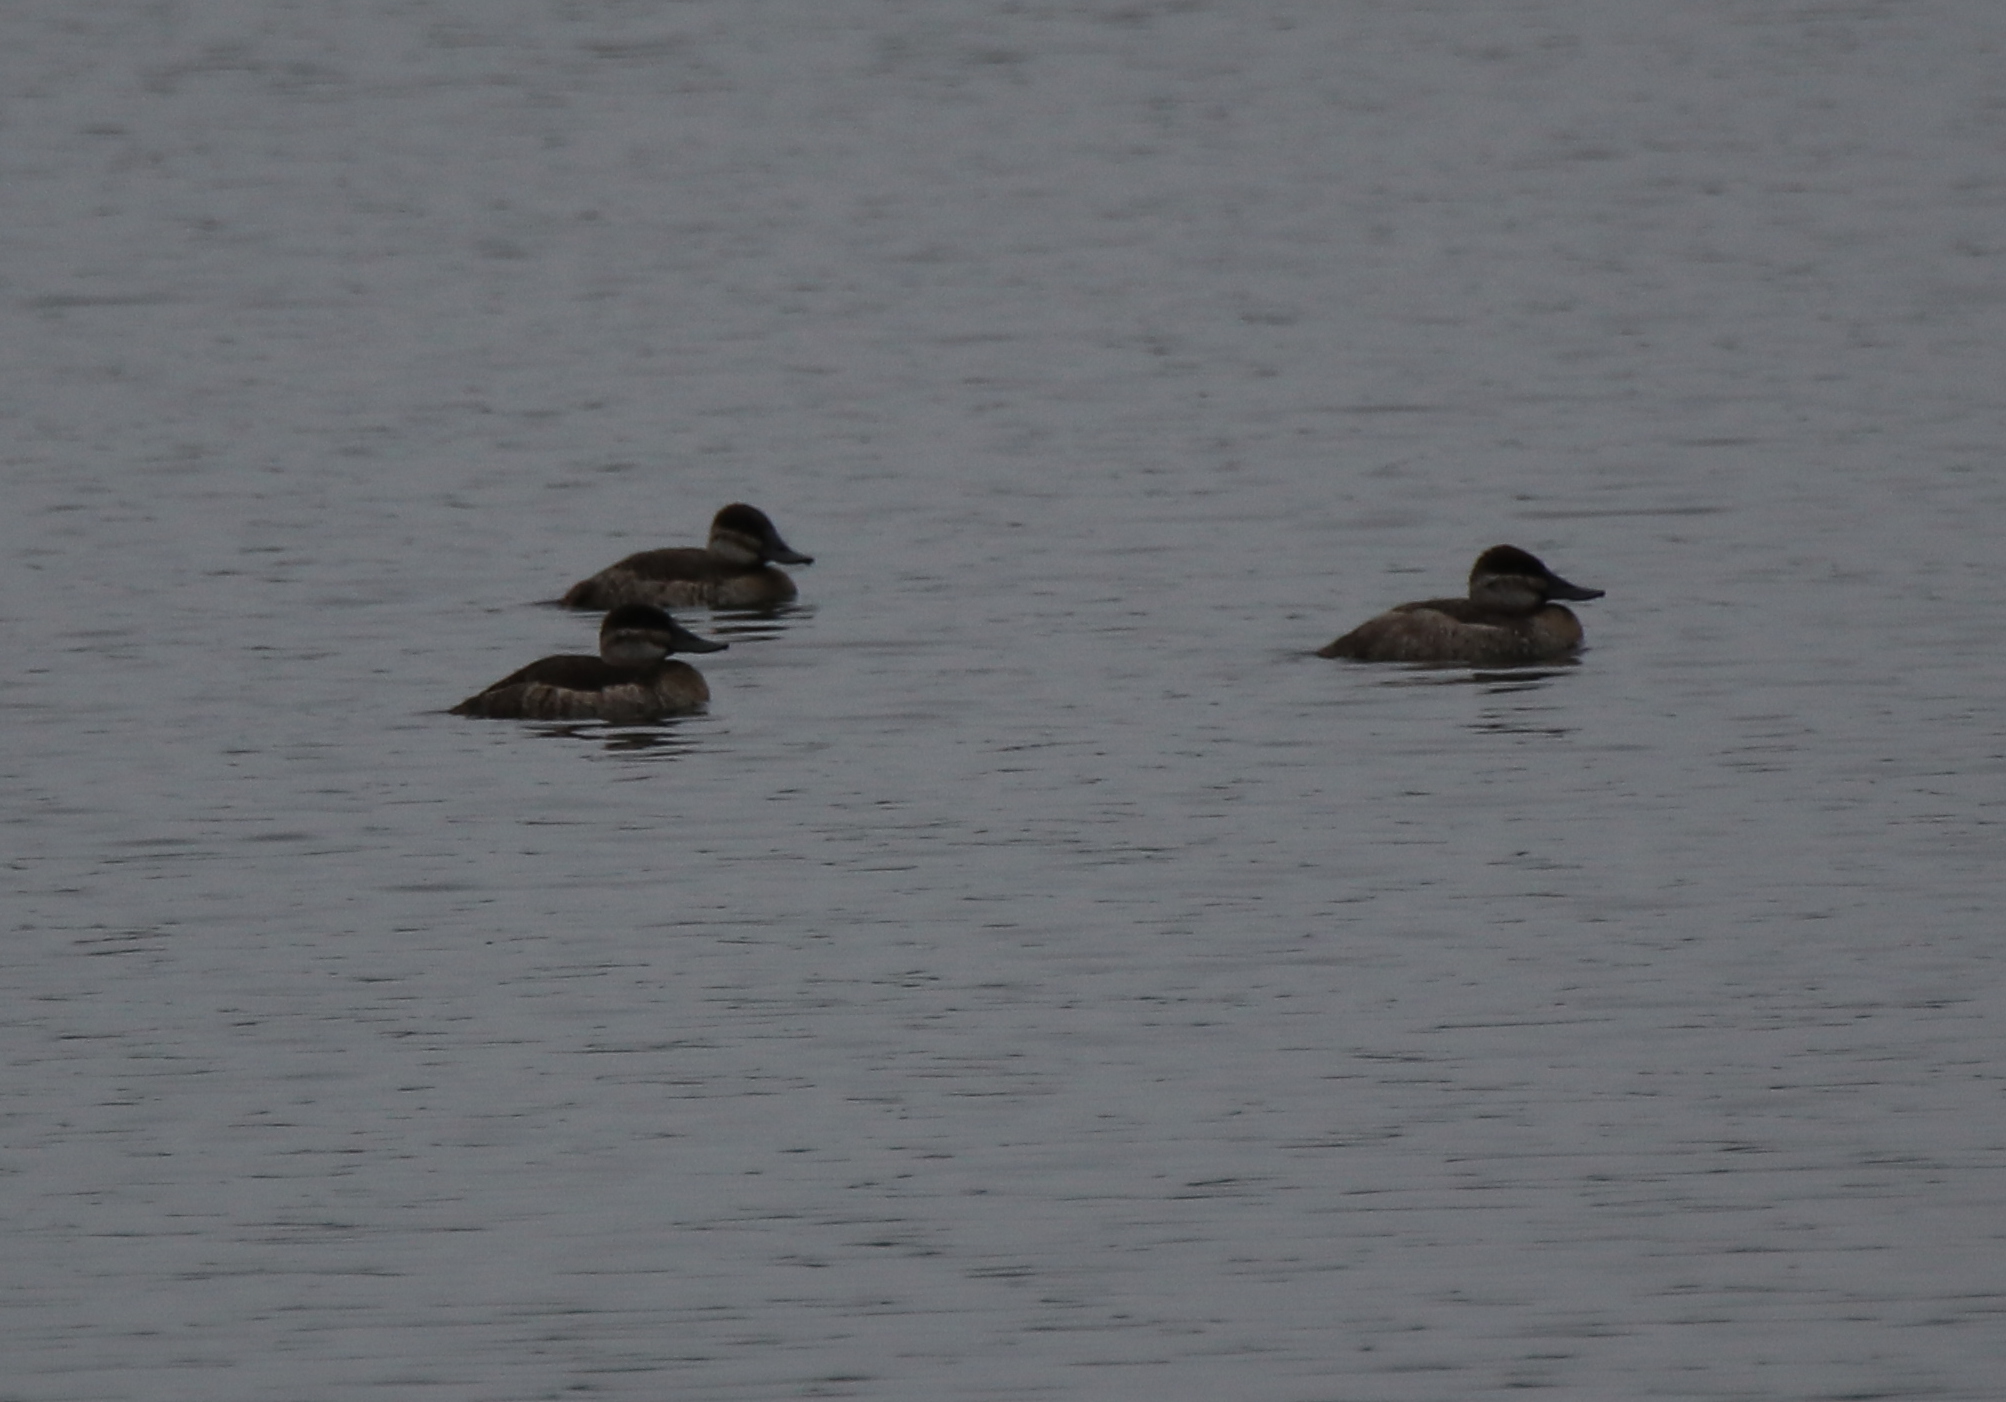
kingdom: Animalia
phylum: Chordata
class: Aves
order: Anseriformes
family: Anatidae
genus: Oxyura
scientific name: Oxyura jamaicensis
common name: Ruddy duck
